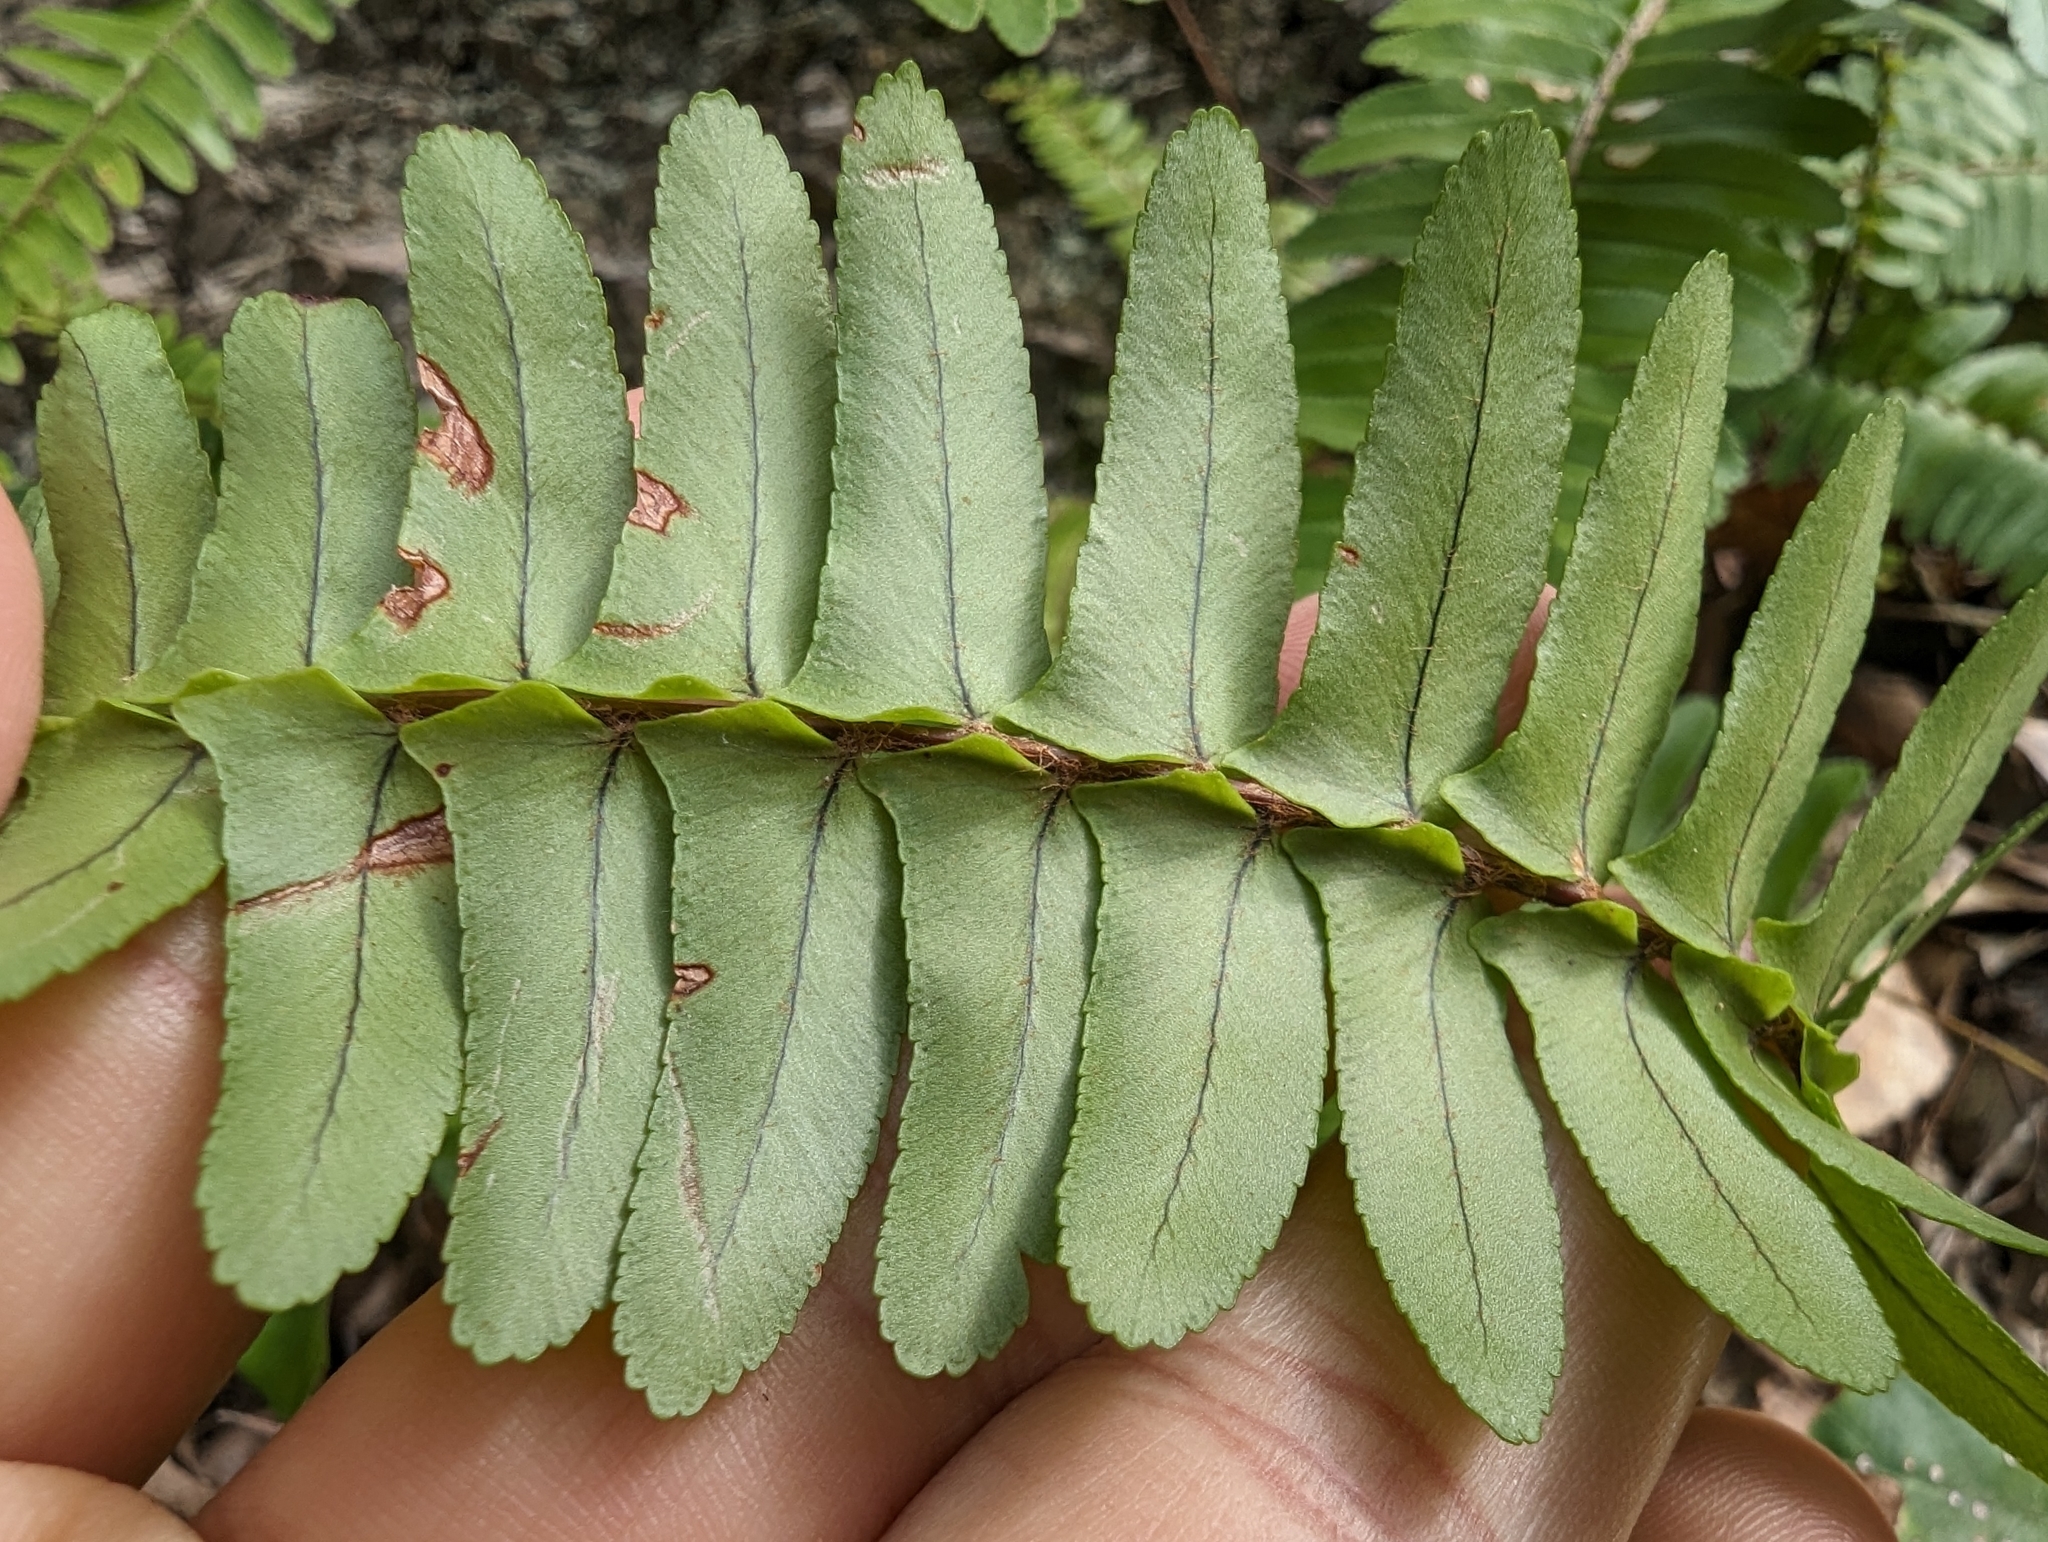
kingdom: Plantae
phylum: Tracheophyta
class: Polypodiopsida
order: Polypodiales
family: Nephrolepidaceae
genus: Nephrolepis
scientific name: Nephrolepis cordifolia
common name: Narrow swordfern
